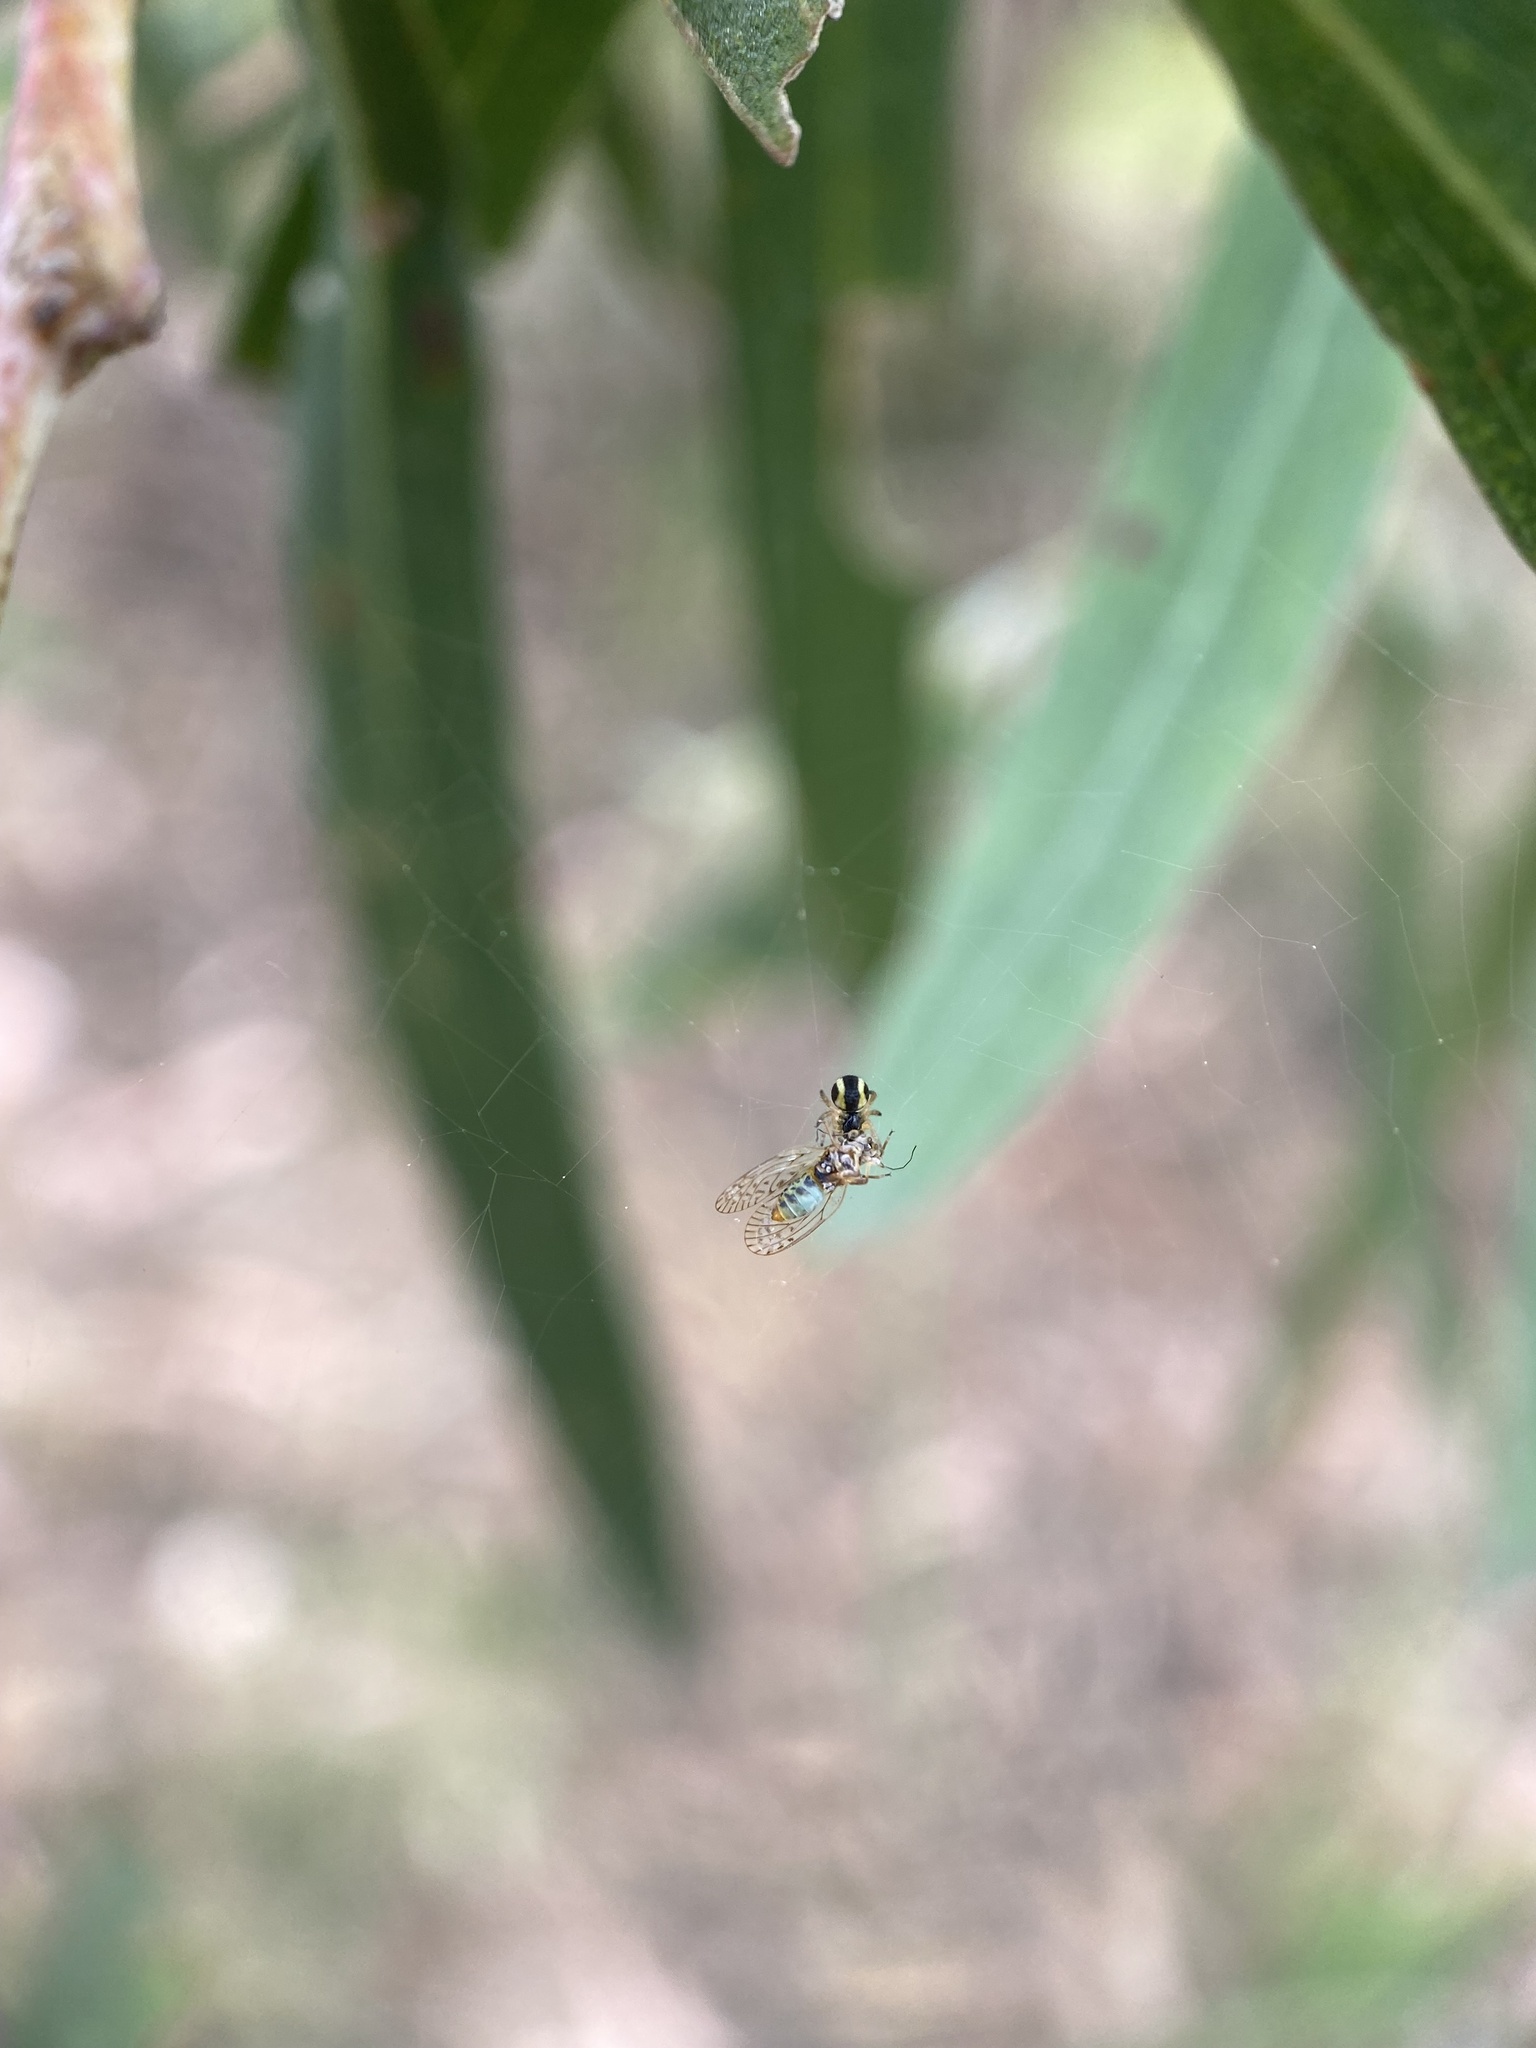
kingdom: Animalia
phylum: Arthropoda
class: Insecta
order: Hemiptera
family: Psyllidae
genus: Acizzia
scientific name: Acizzia acaciae
